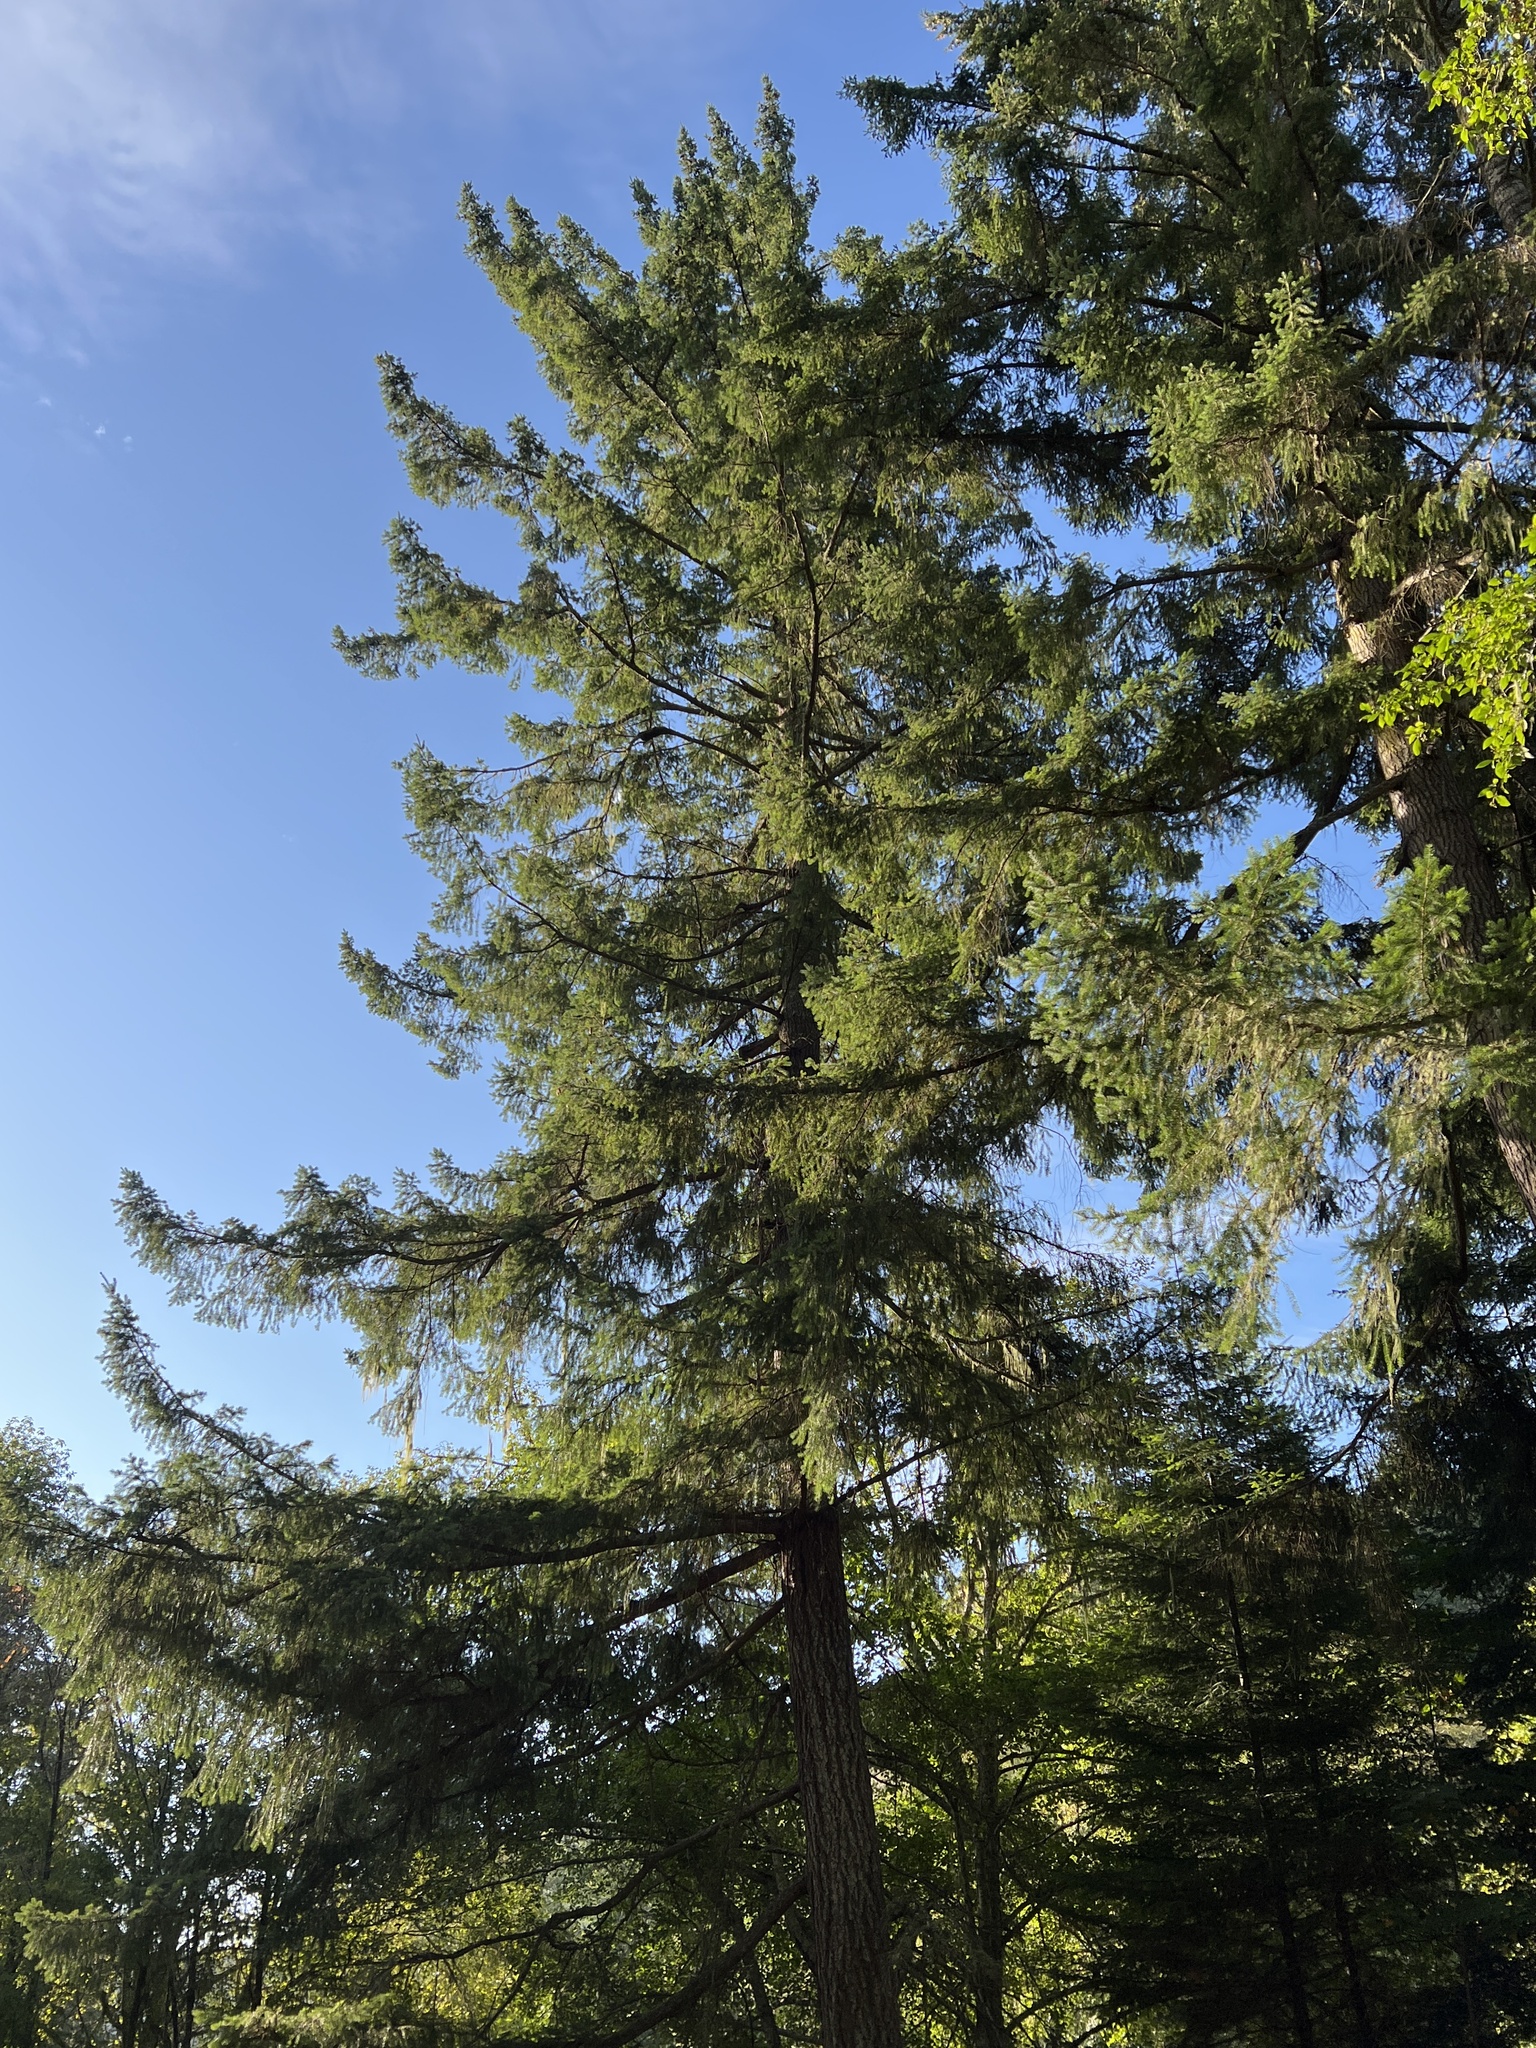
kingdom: Plantae
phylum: Tracheophyta
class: Pinopsida
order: Pinales
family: Pinaceae
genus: Pseudotsuga
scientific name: Pseudotsuga menziesii
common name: Douglas fir
